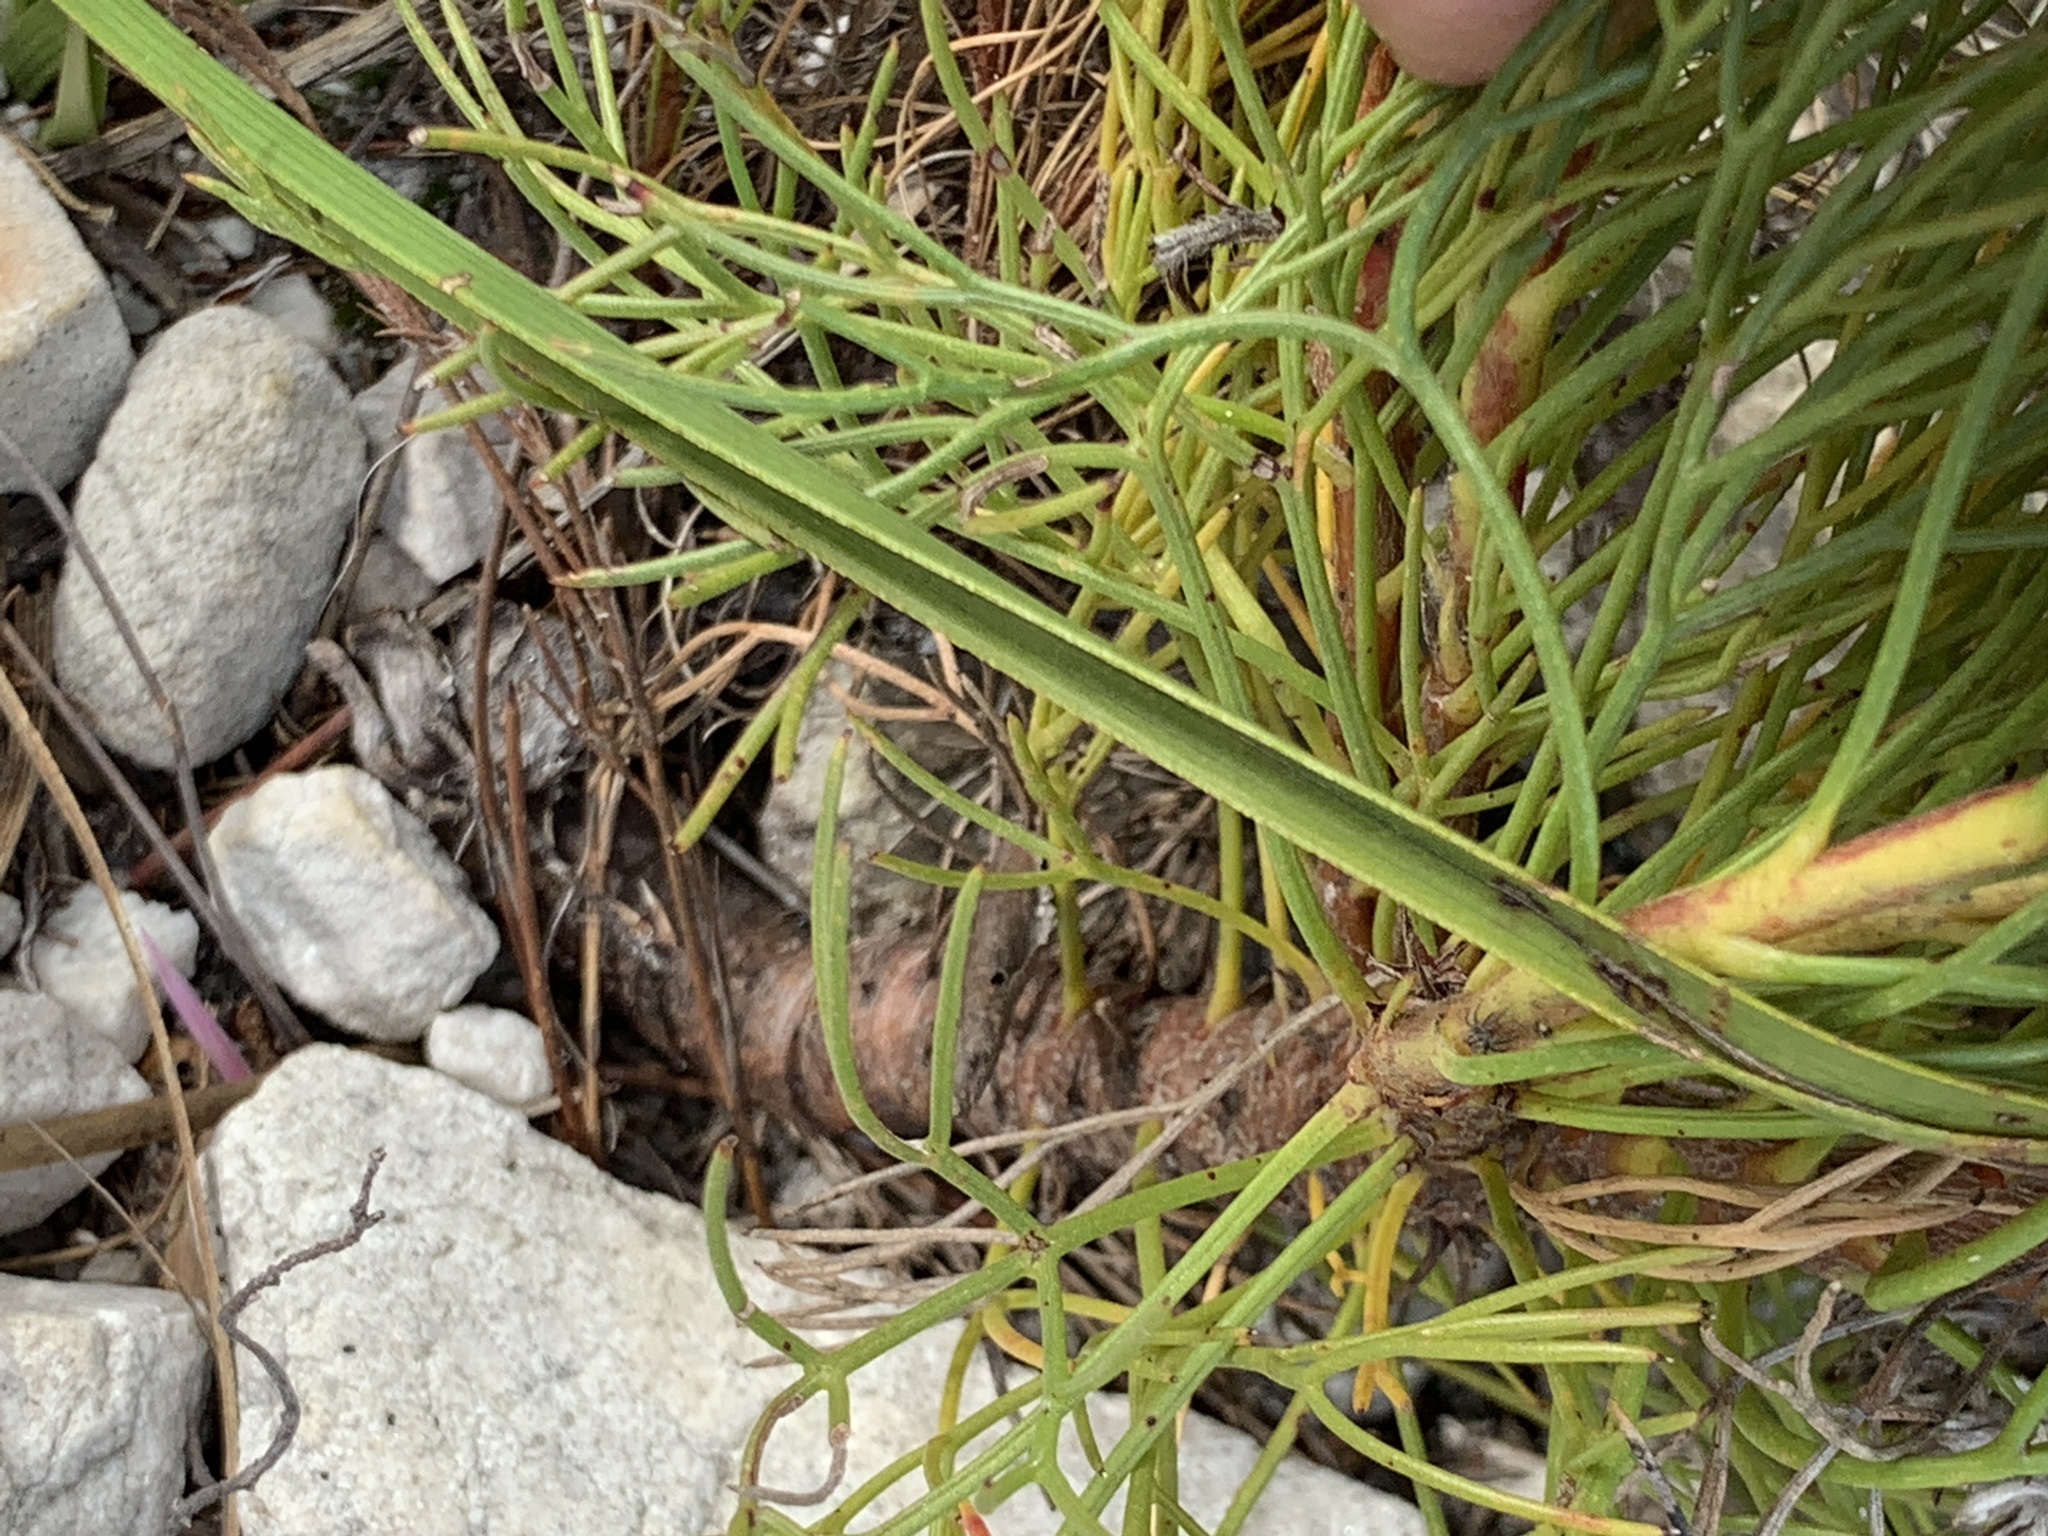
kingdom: Plantae
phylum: Tracheophyta
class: Magnoliopsida
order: Proteales
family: Proteaceae
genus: Serruria
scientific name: Serruria ascendens
